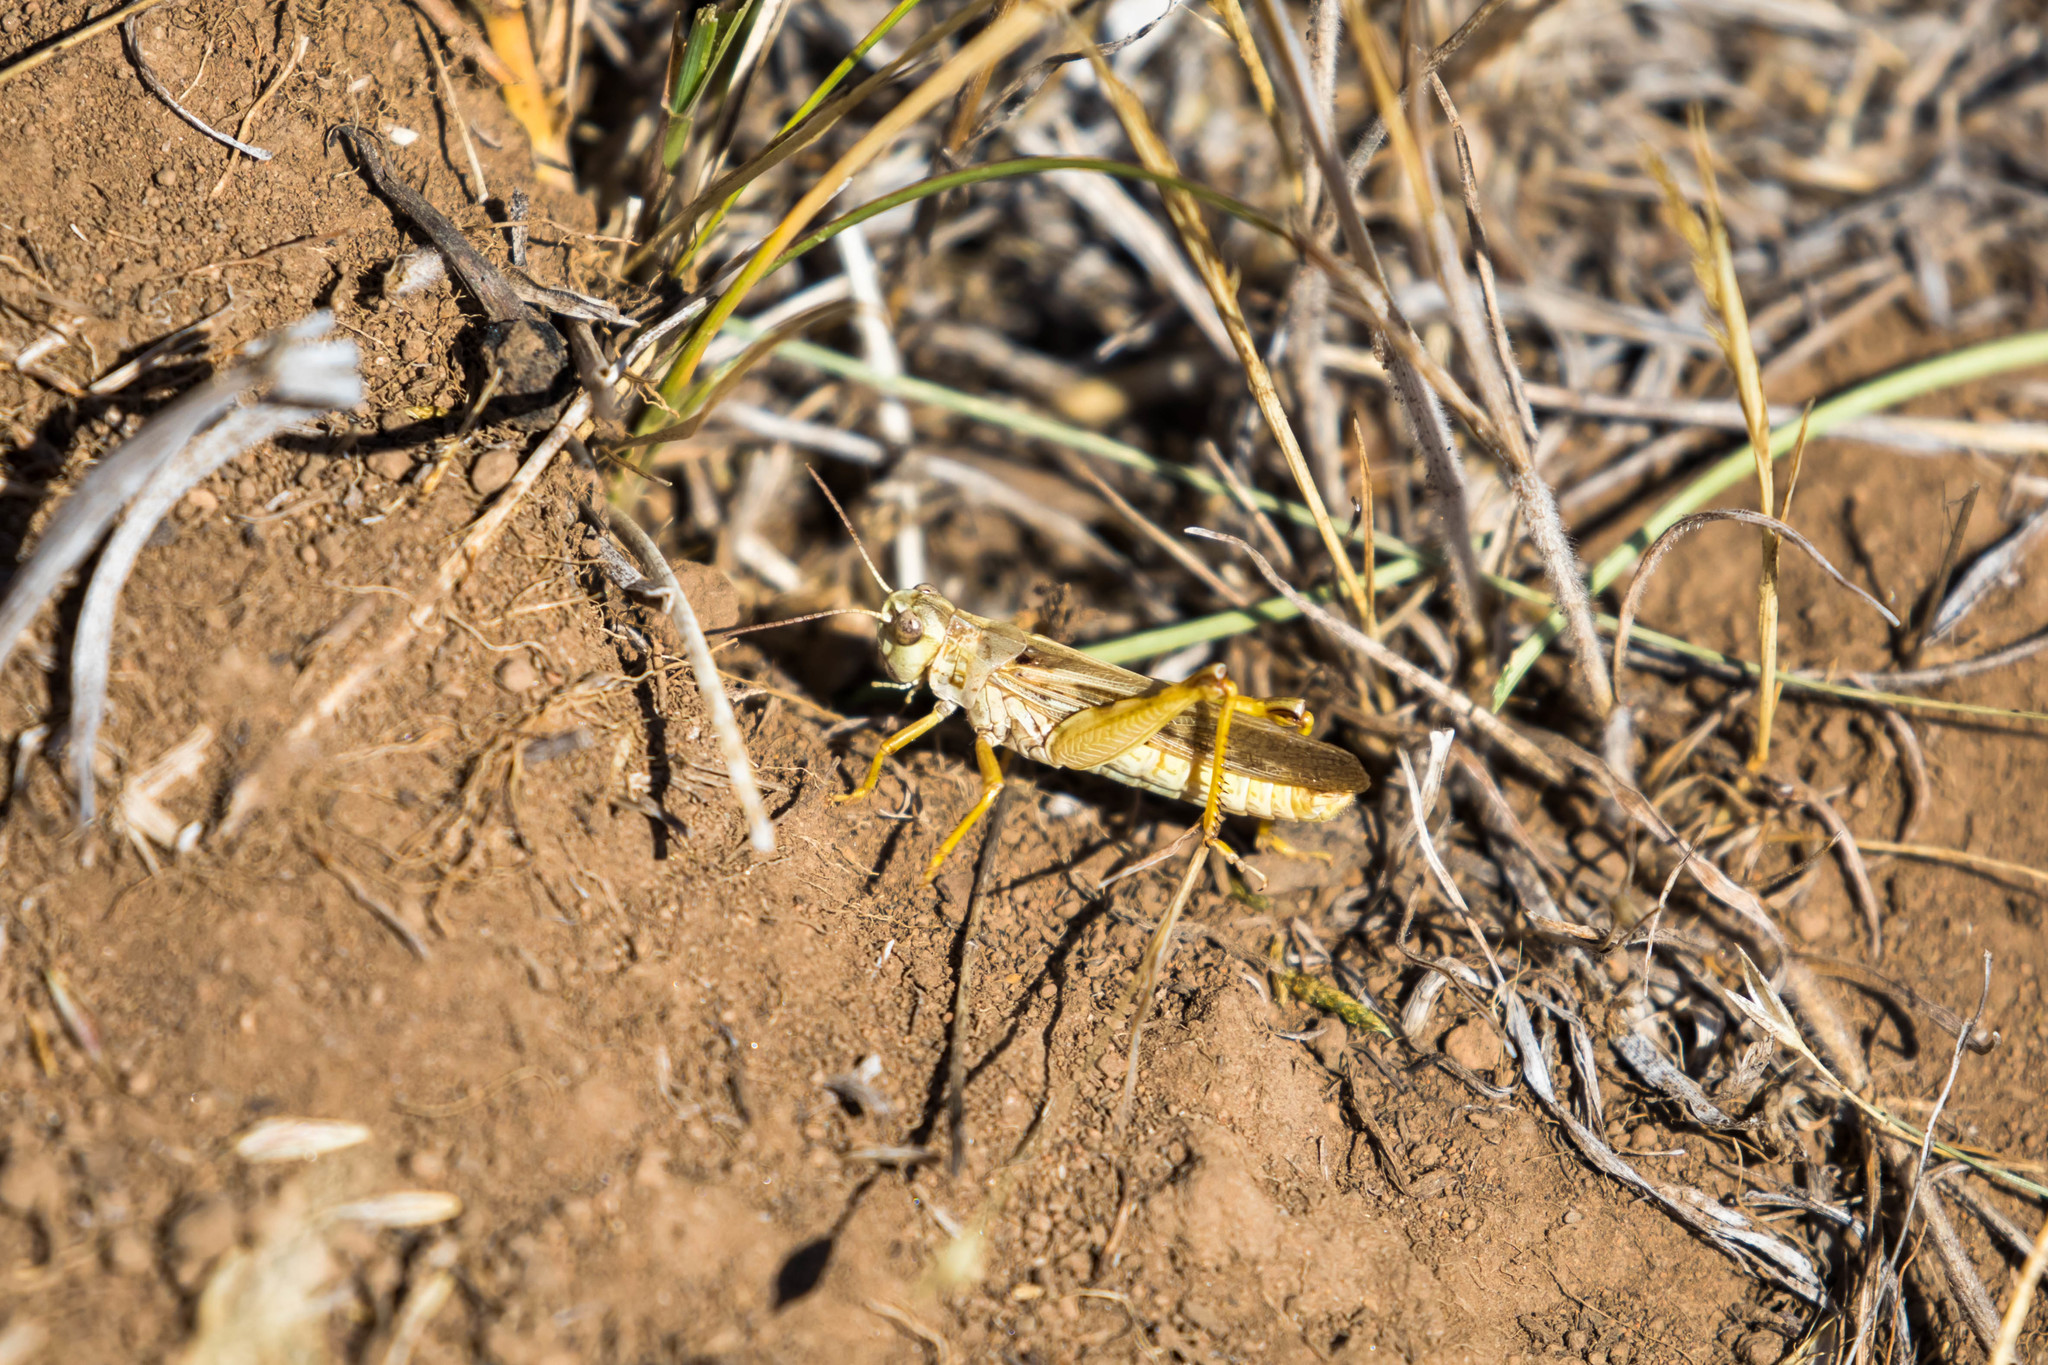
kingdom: Animalia
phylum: Arthropoda
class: Insecta
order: Orthoptera
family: Acrididae
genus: Camnula
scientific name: Camnula pellucida
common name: Clear-winged grasshopper
